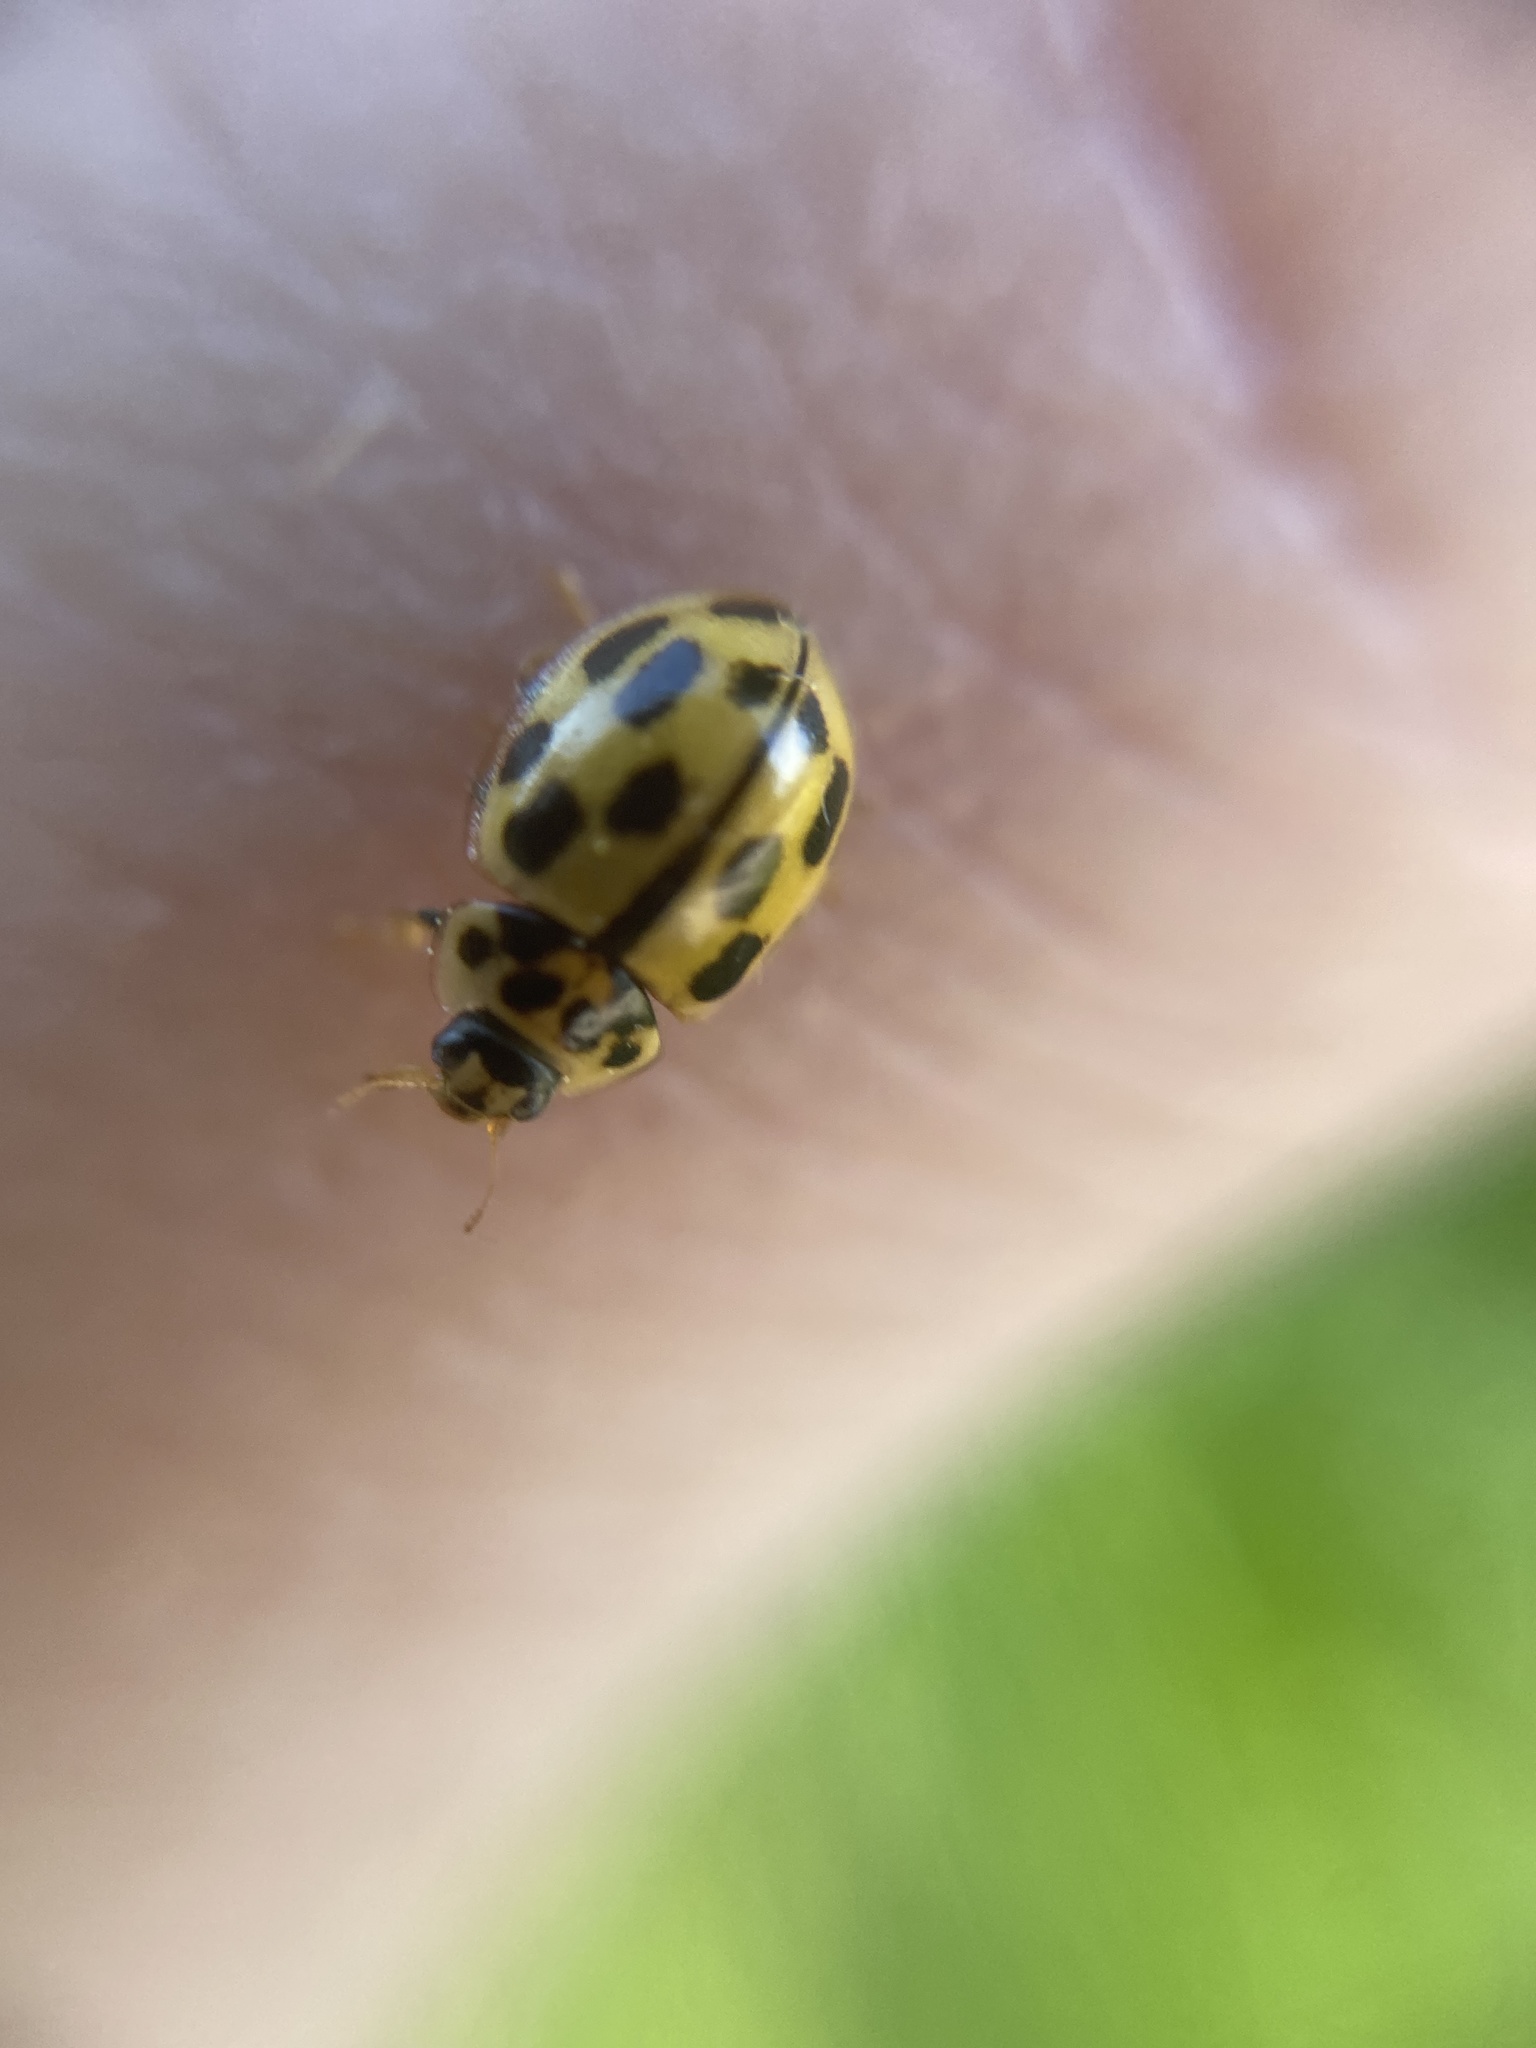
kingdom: Animalia
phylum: Arthropoda
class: Insecta
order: Coleoptera
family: Coccinellidae
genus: Propylaea
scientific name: Propylaea quatuordecimpunctata
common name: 14-spotted ladybird beetle
